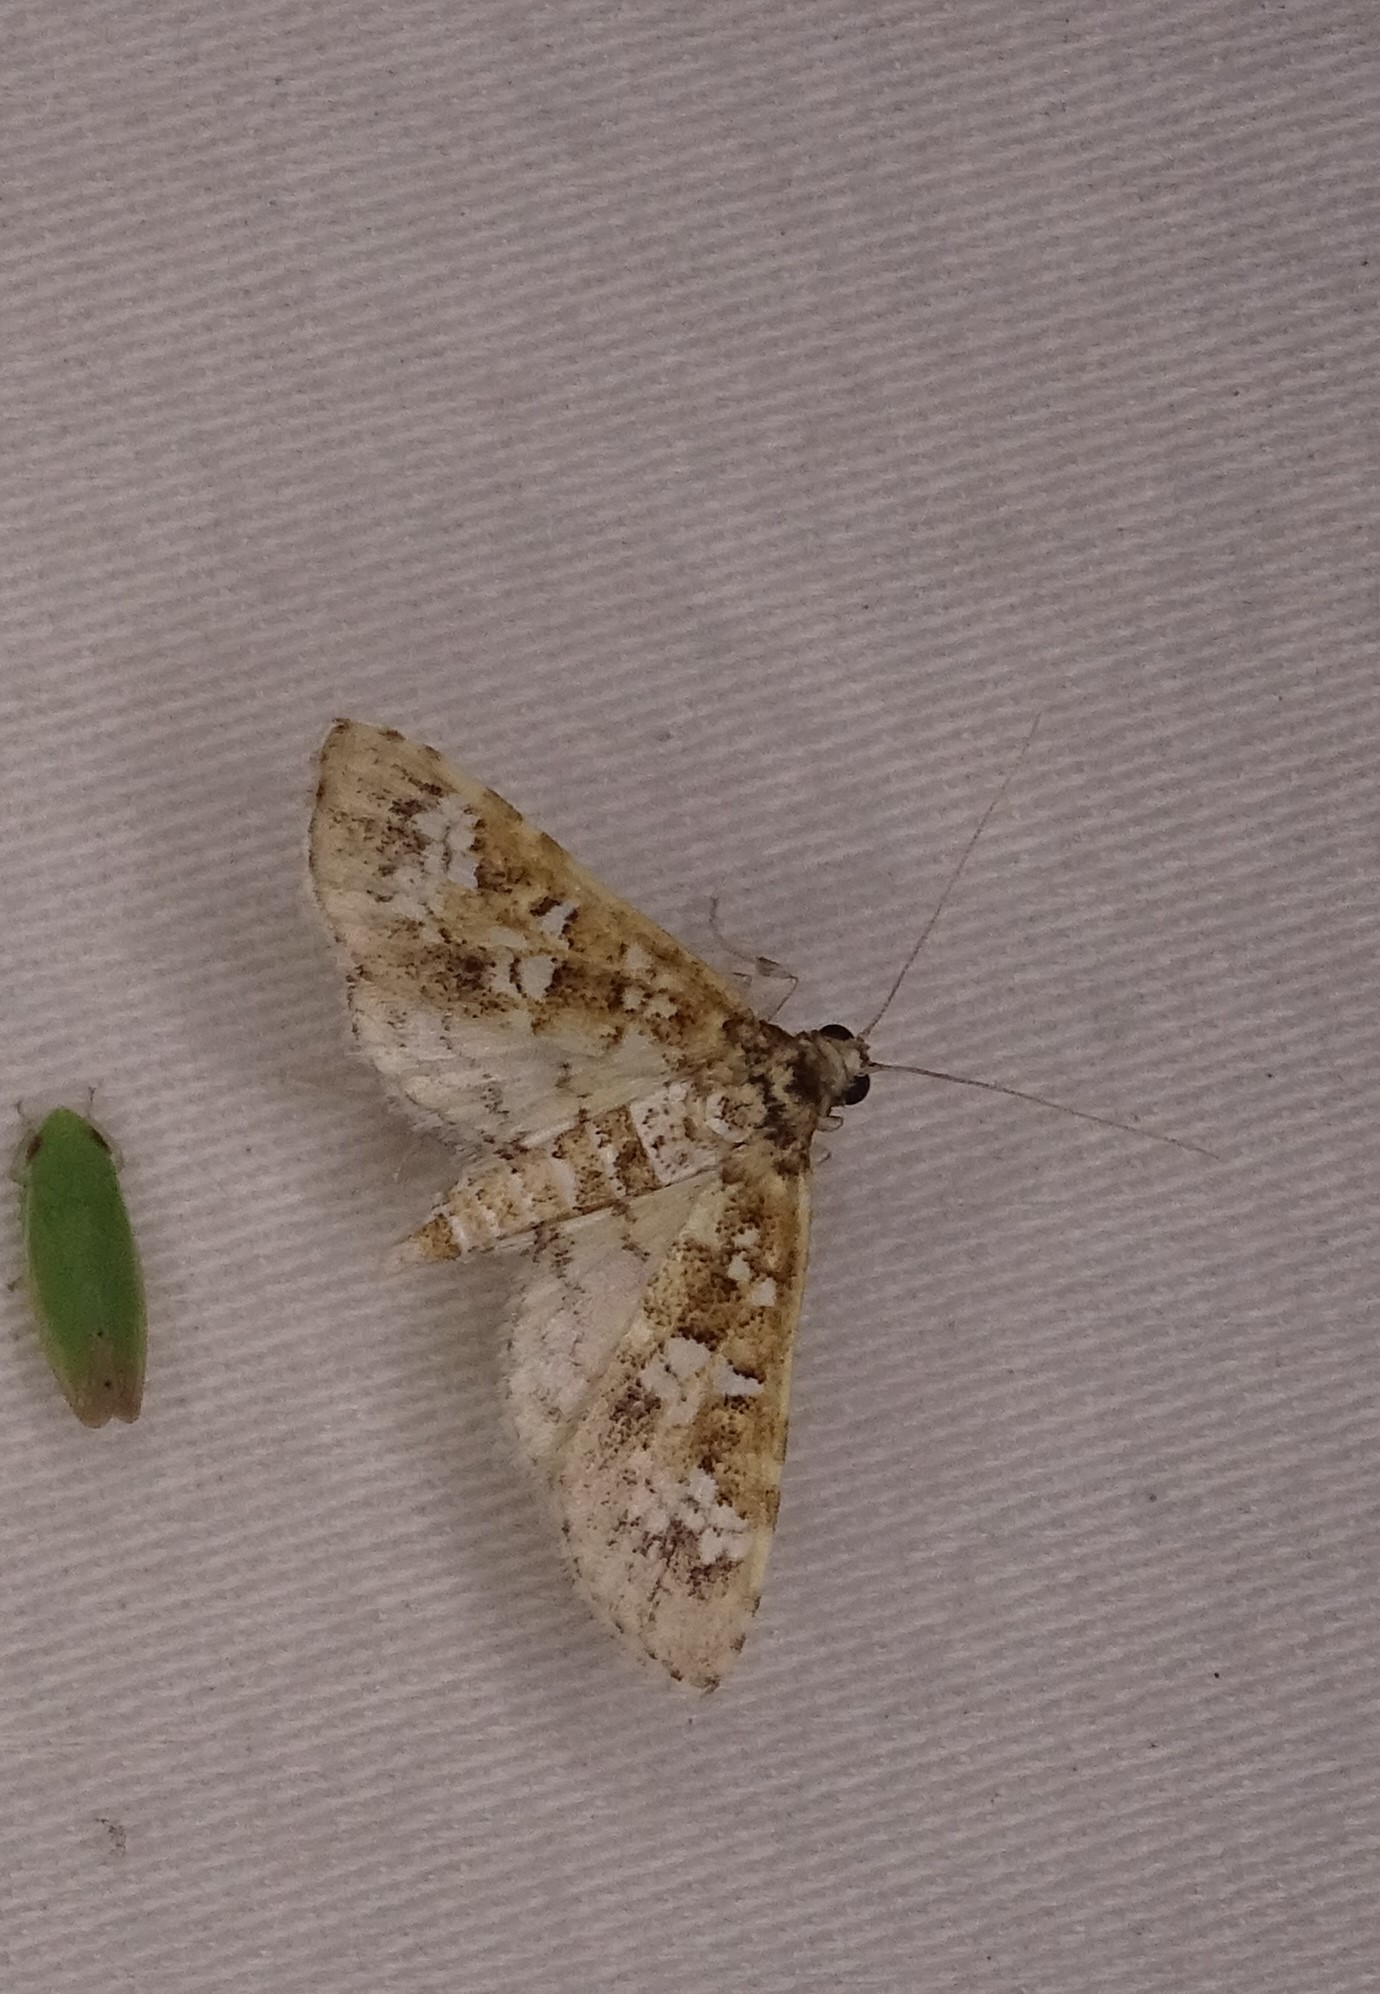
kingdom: Animalia
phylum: Arthropoda
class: Insecta
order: Lepidoptera
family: Crambidae
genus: Samea
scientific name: Samea multiplicalis
